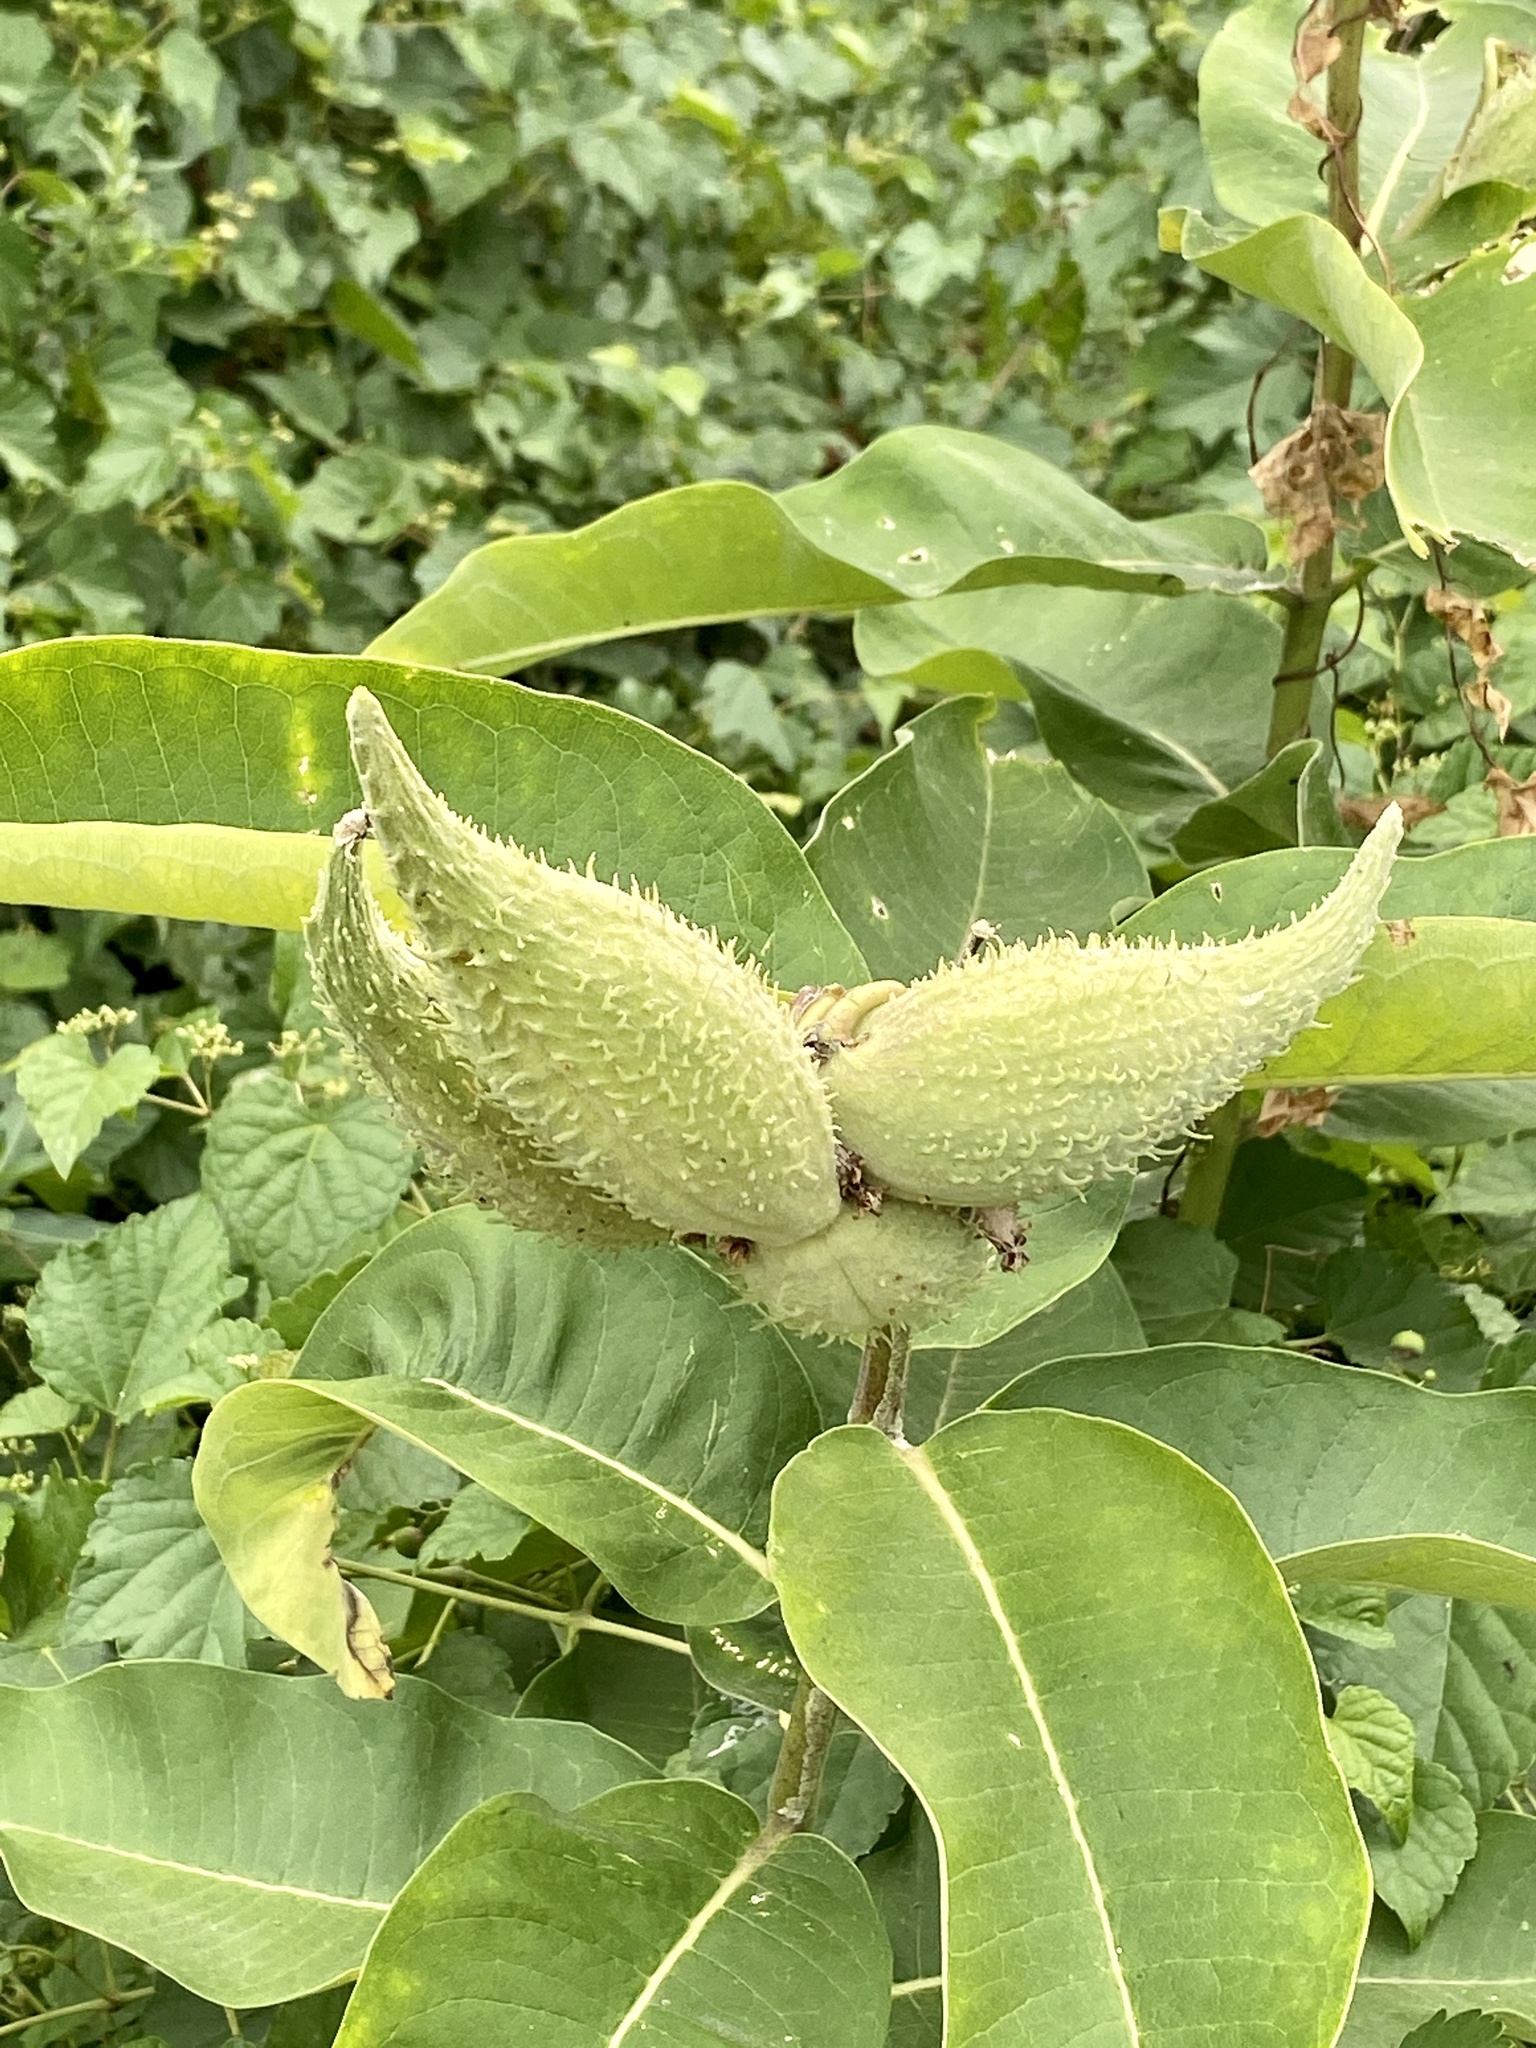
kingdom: Plantae
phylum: Tracheophyta
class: Magnoliopsida
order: Gentianales
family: Apocynaceae
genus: Asclepias
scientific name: Asclepias syriaca
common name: Common milkweed
